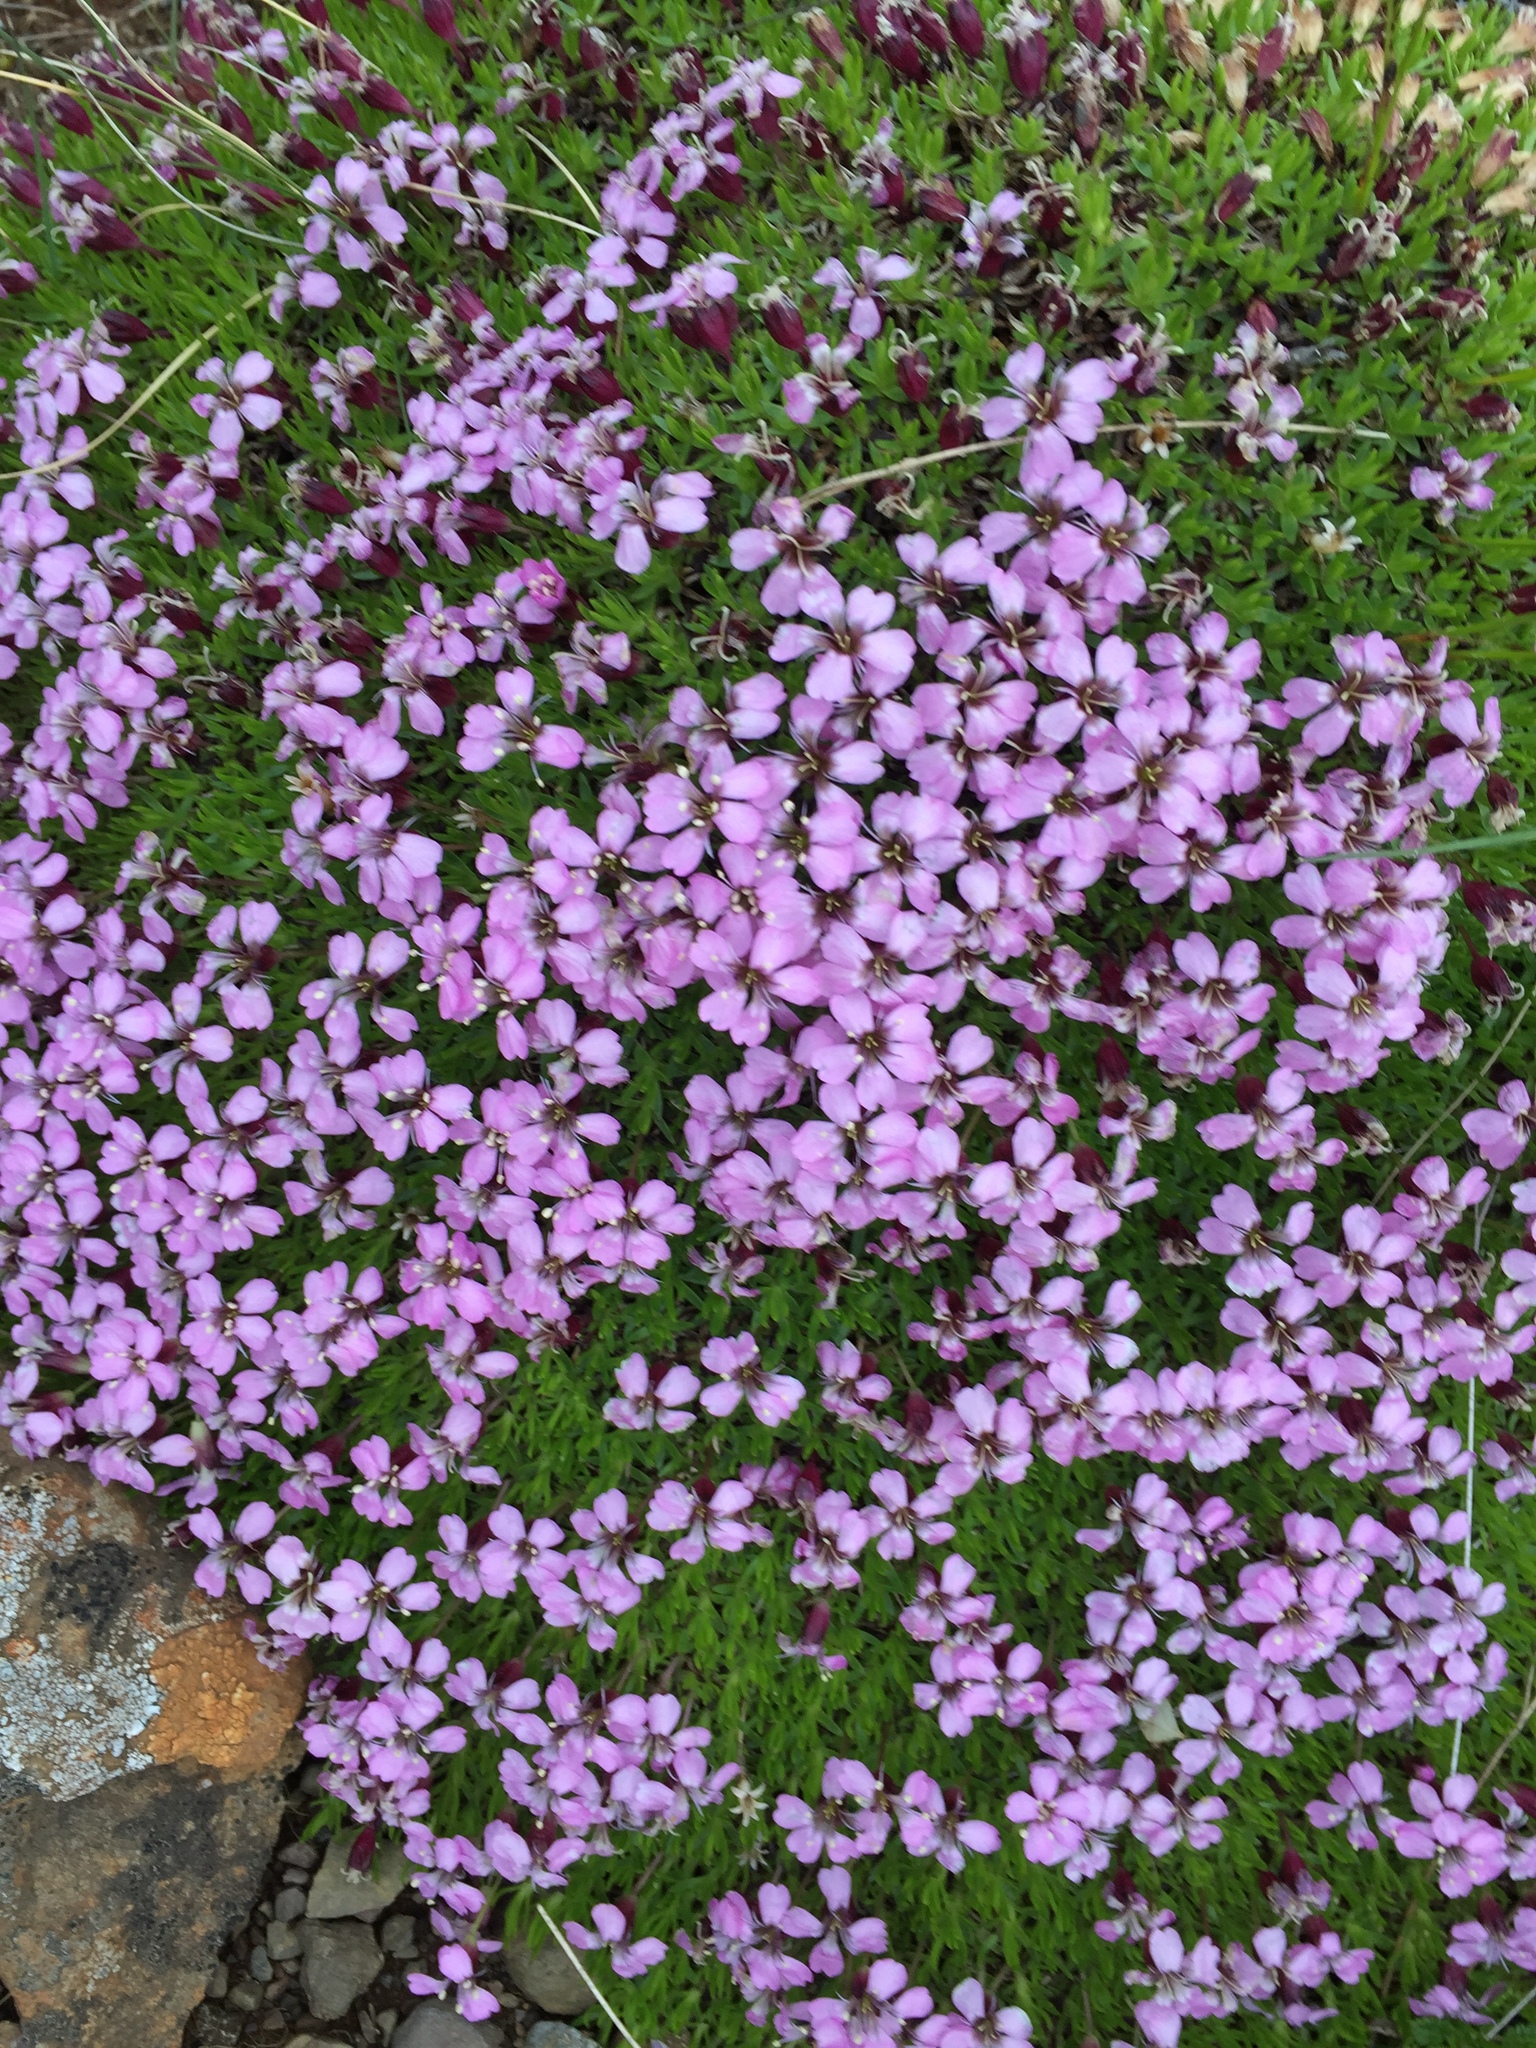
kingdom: Plantae
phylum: Tracheophyta
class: Magnoliopsida
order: Caryophyllales
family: Caryophyllaceae
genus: Silene
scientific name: Silene acaulis
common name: Moss campion
